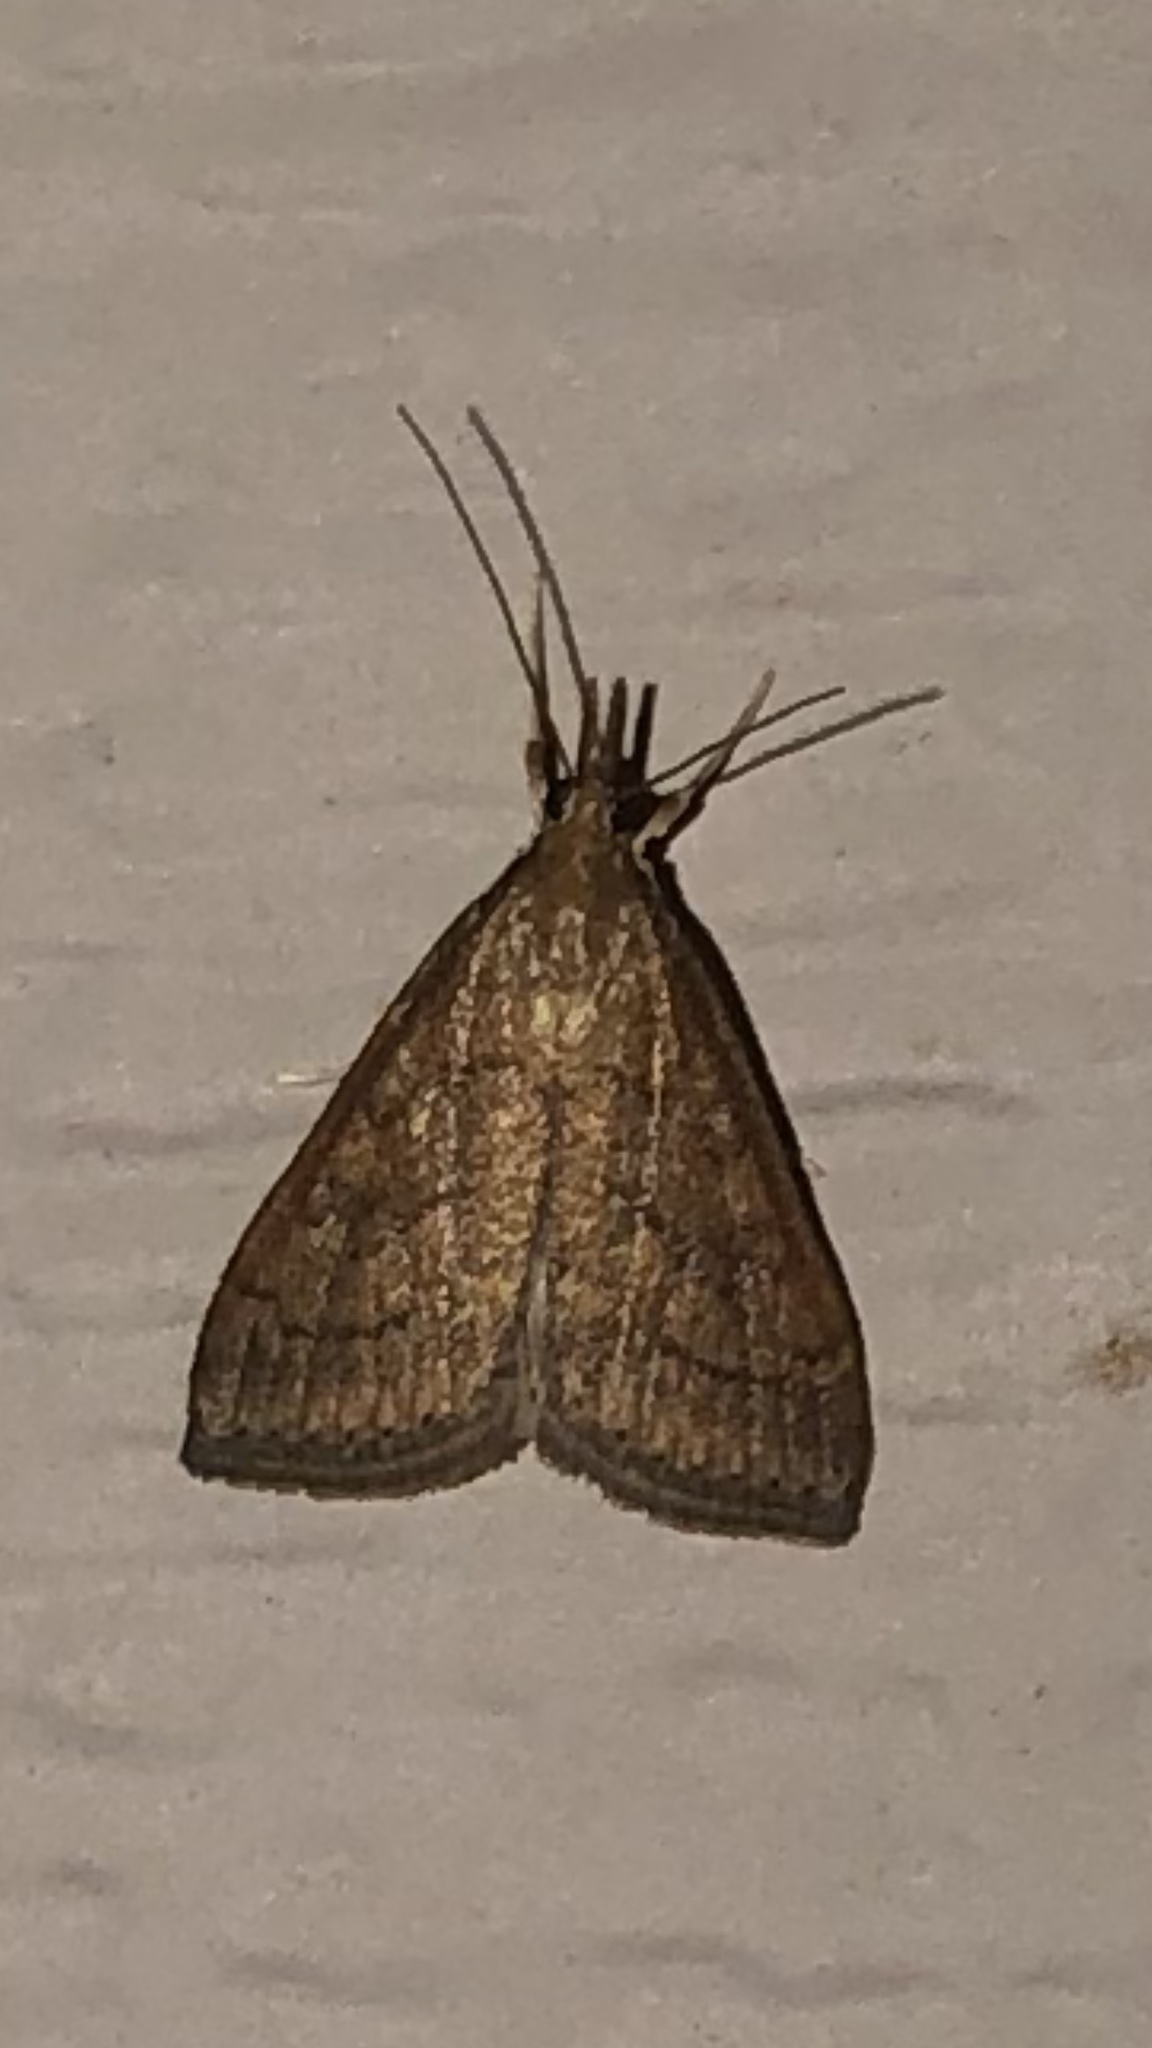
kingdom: Animalia
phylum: Arthropoda
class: Insecta
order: Lepidoptera
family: Crambidae
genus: Udea
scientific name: Udea rubigalis
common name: Celery leaftier moth
